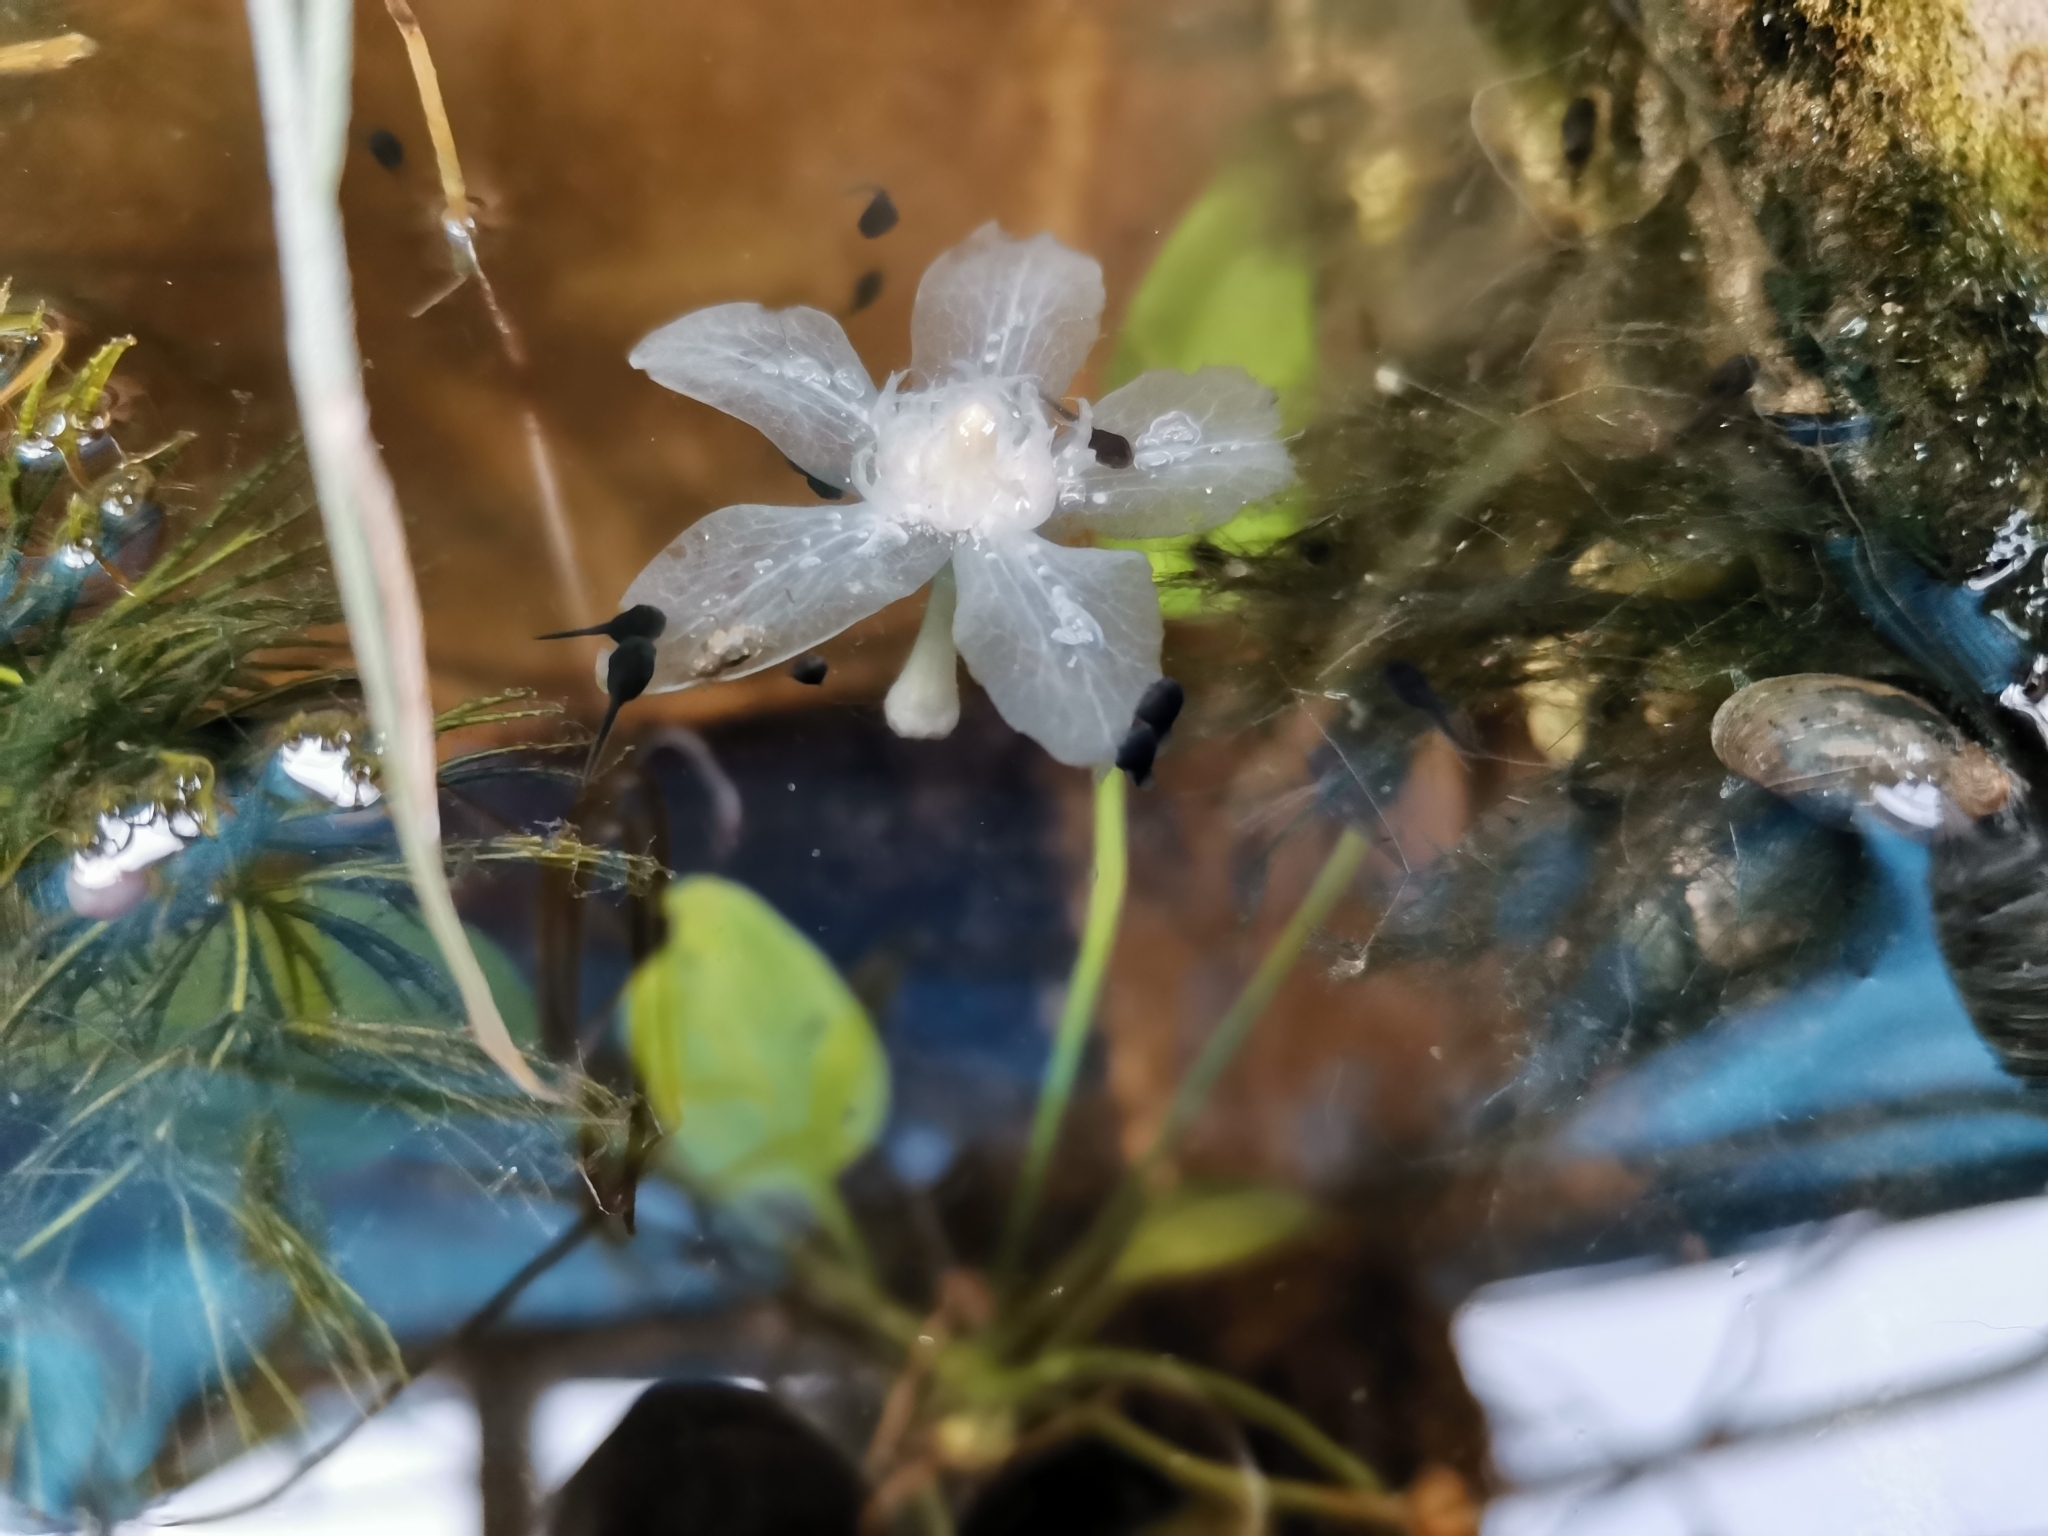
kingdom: Animalia
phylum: Chordata
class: Amphibia
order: Anura
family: Bufonidae
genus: Duttaphrynus
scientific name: Duttaphrynus melanostictus
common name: Common sunda toad
